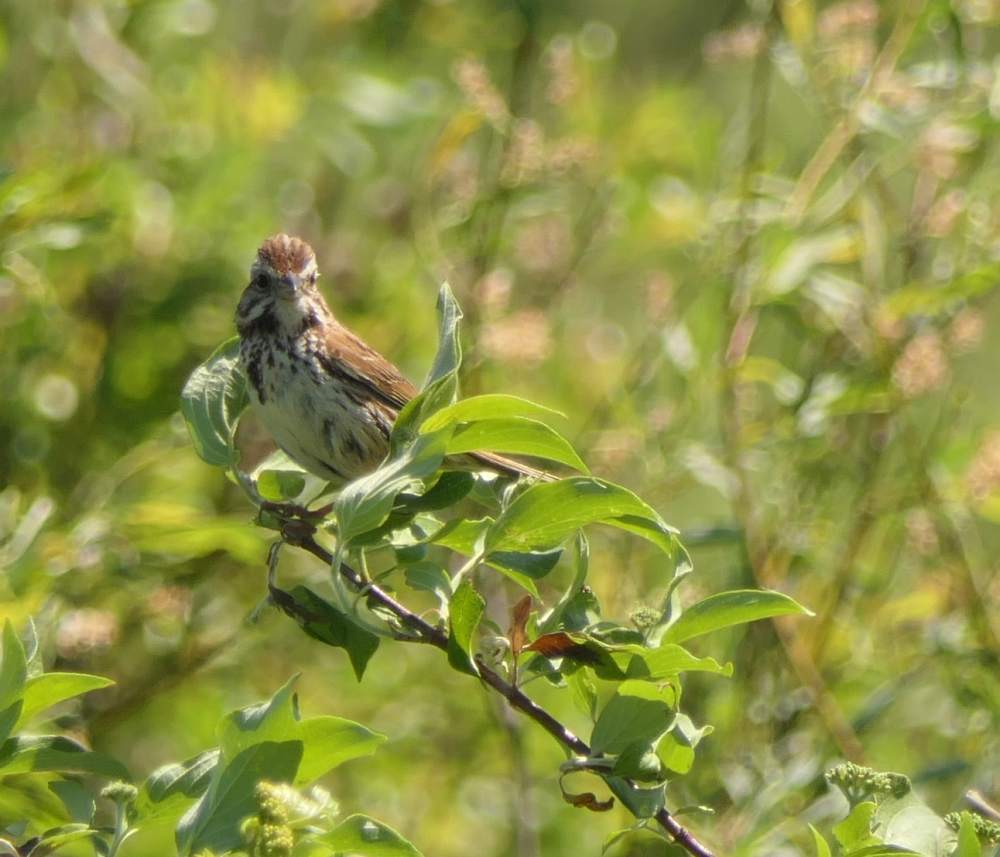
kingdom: Animalia
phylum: Chordata
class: Aves
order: Passeriformes
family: Passerellidae
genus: Melospiza
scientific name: Melospiza melodia
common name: Song sparrow
